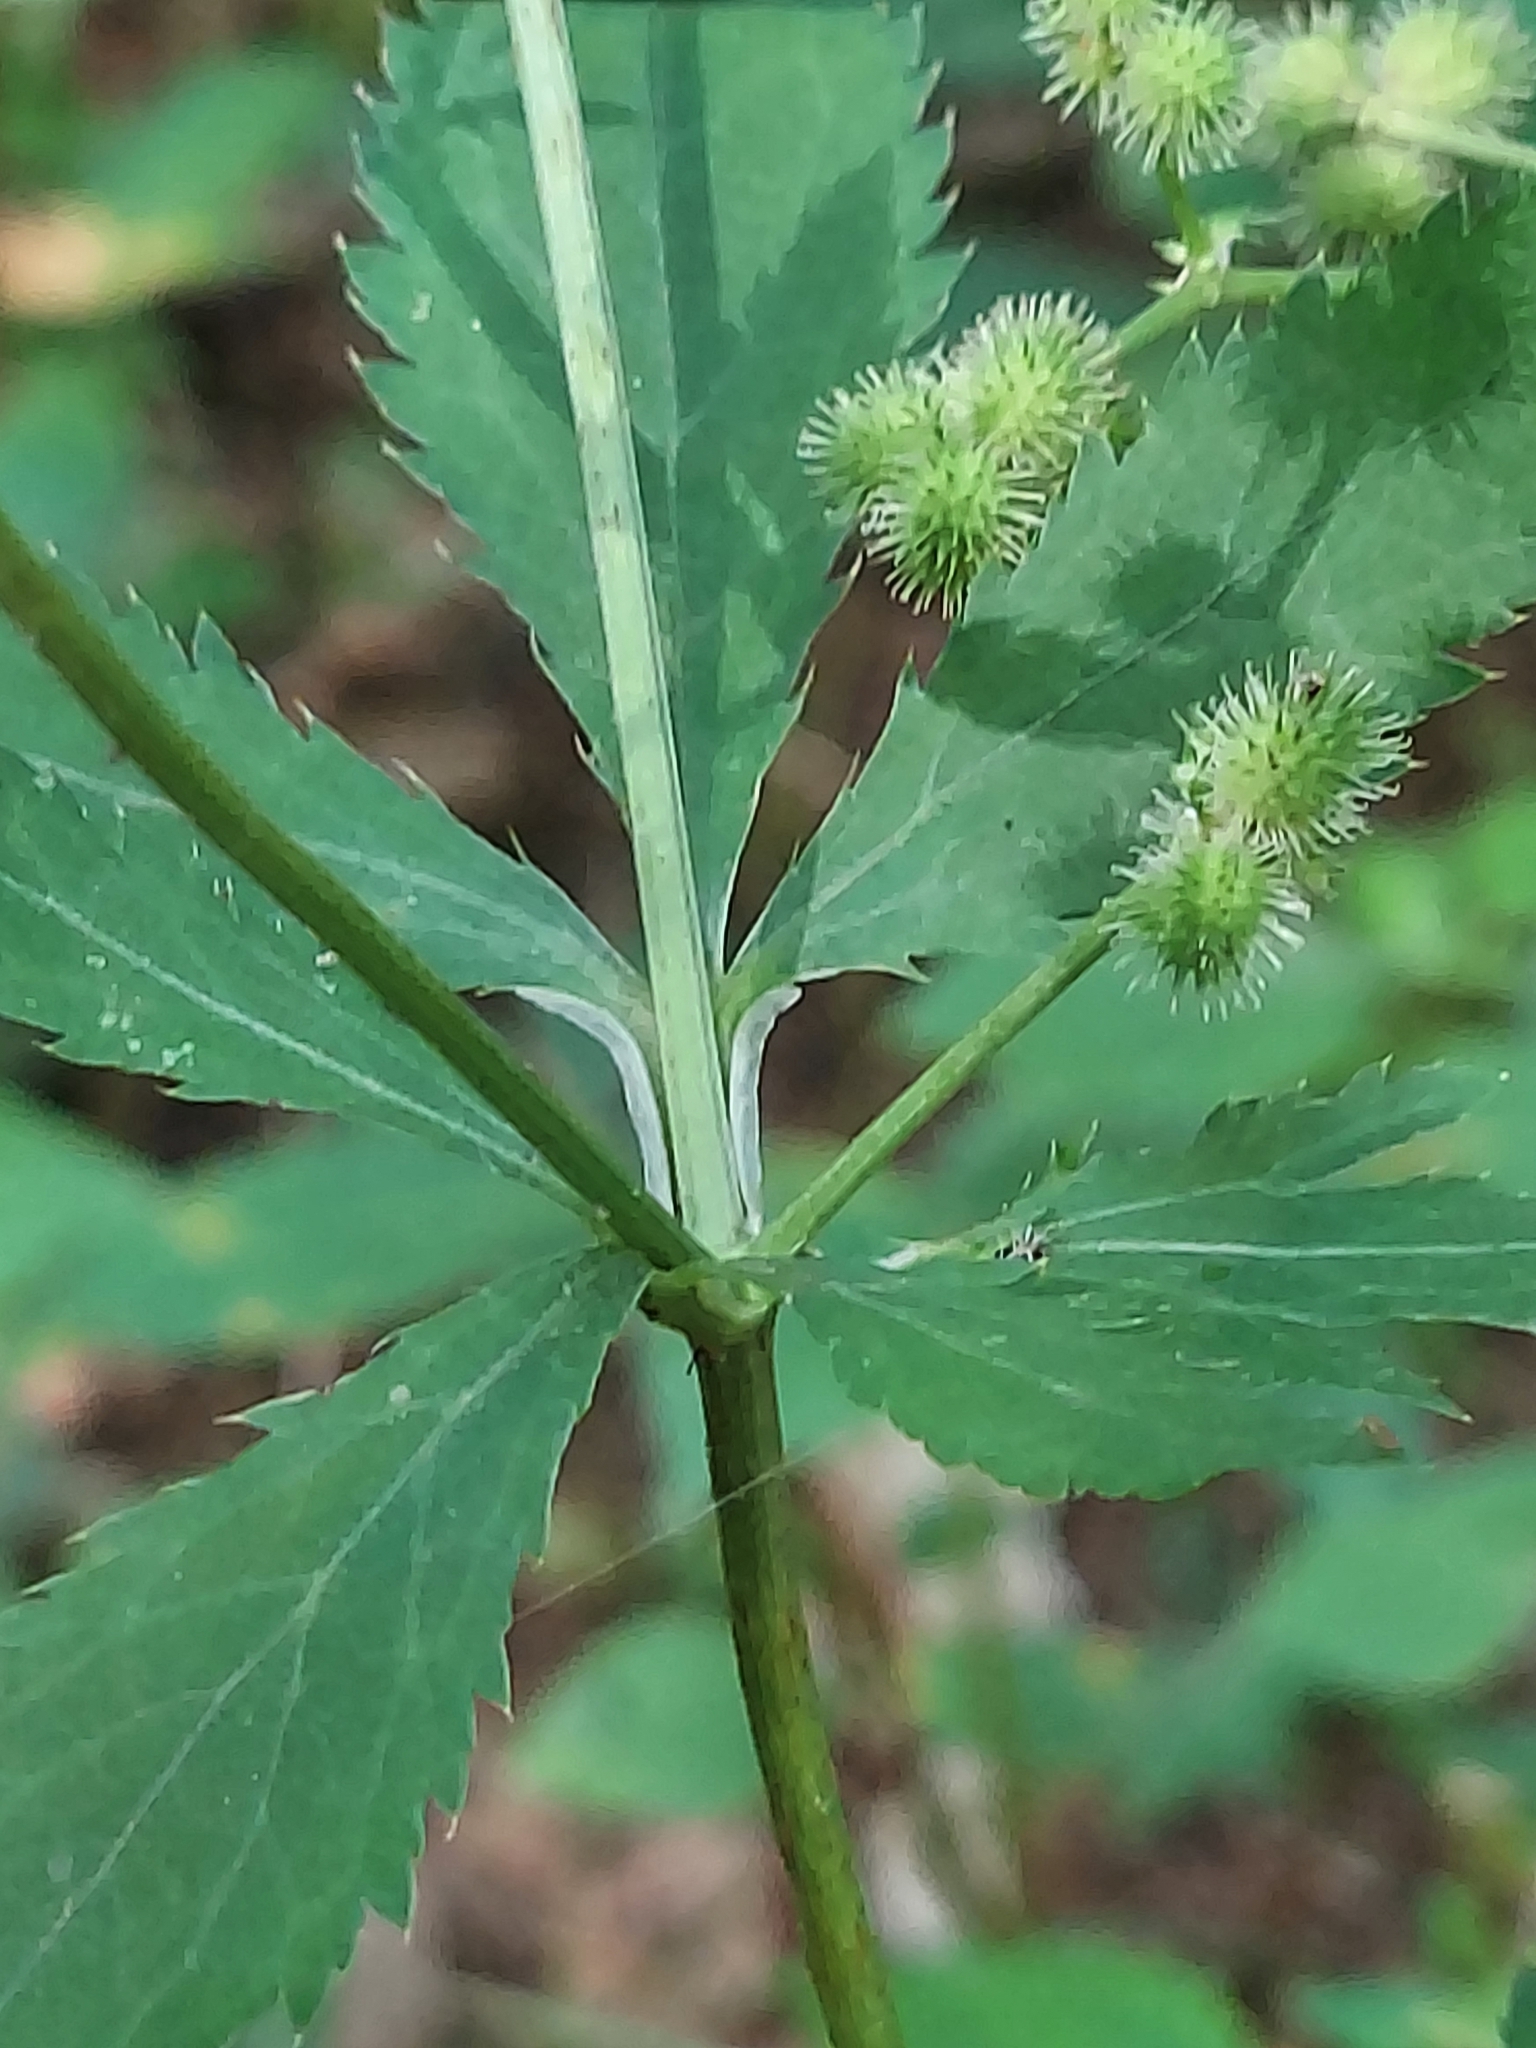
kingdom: Plantae
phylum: Tracheophyta
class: Magnoliopsida
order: Apiales
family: Apiaceae
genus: Sanicula
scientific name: Sanicula canadensis
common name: Canada sanicle
